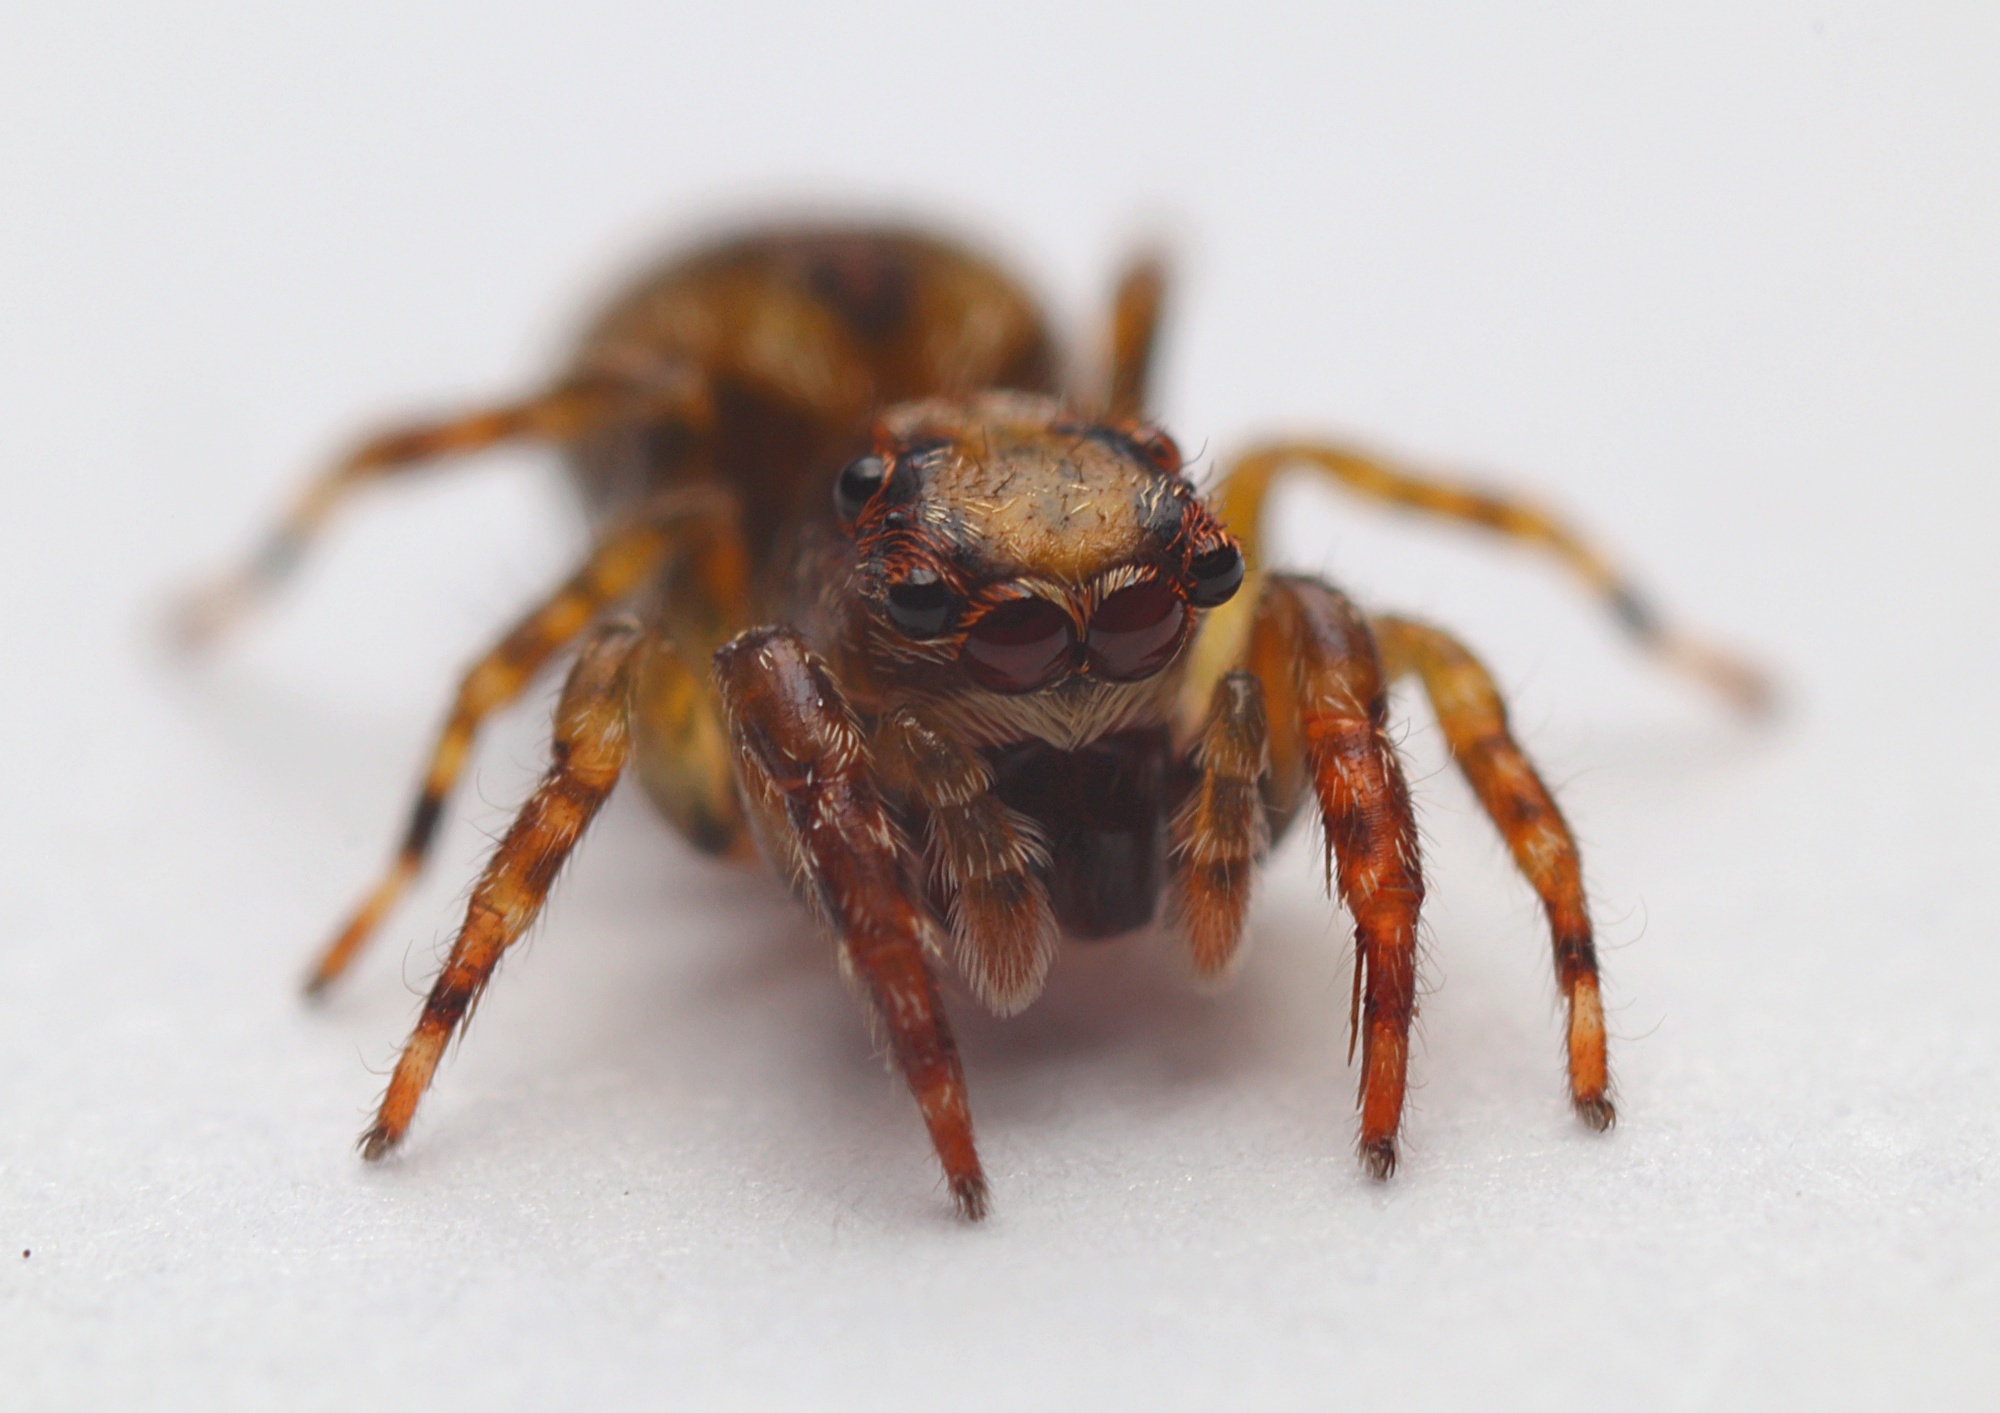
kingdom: Animalia
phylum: Arthropoda
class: Arachnida
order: Araneae
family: Salticidae
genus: Hinewaia
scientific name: Hinewaia embolica
